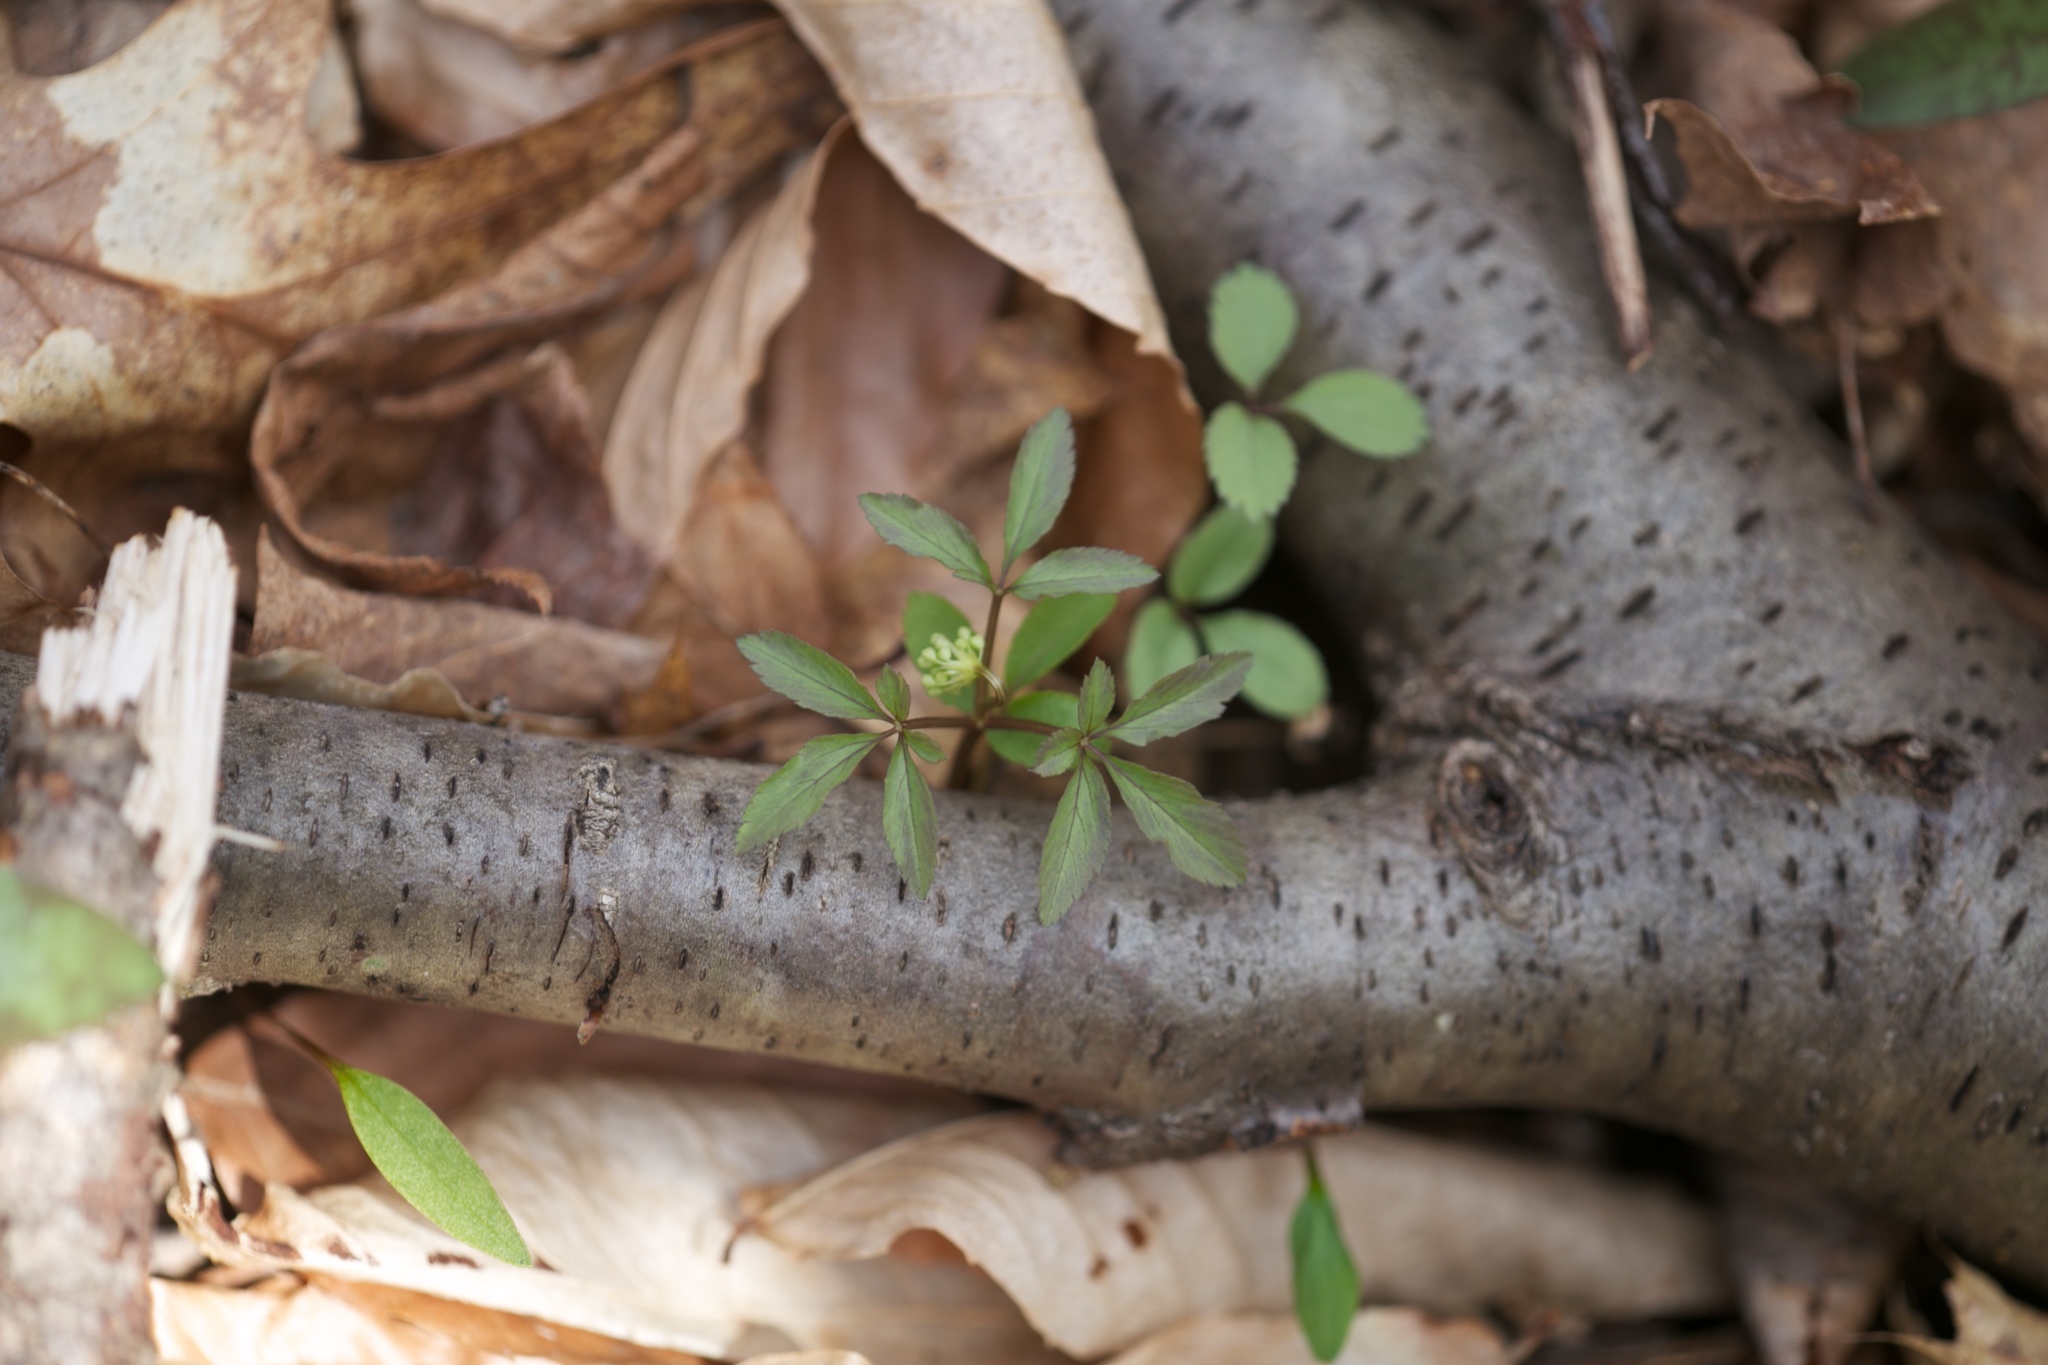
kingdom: Plantae
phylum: Tracheophyta
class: Magnoliopsida
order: Apiales
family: Araliaceae
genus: Panax
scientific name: Panax trifolius
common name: Dwarf ginseng
